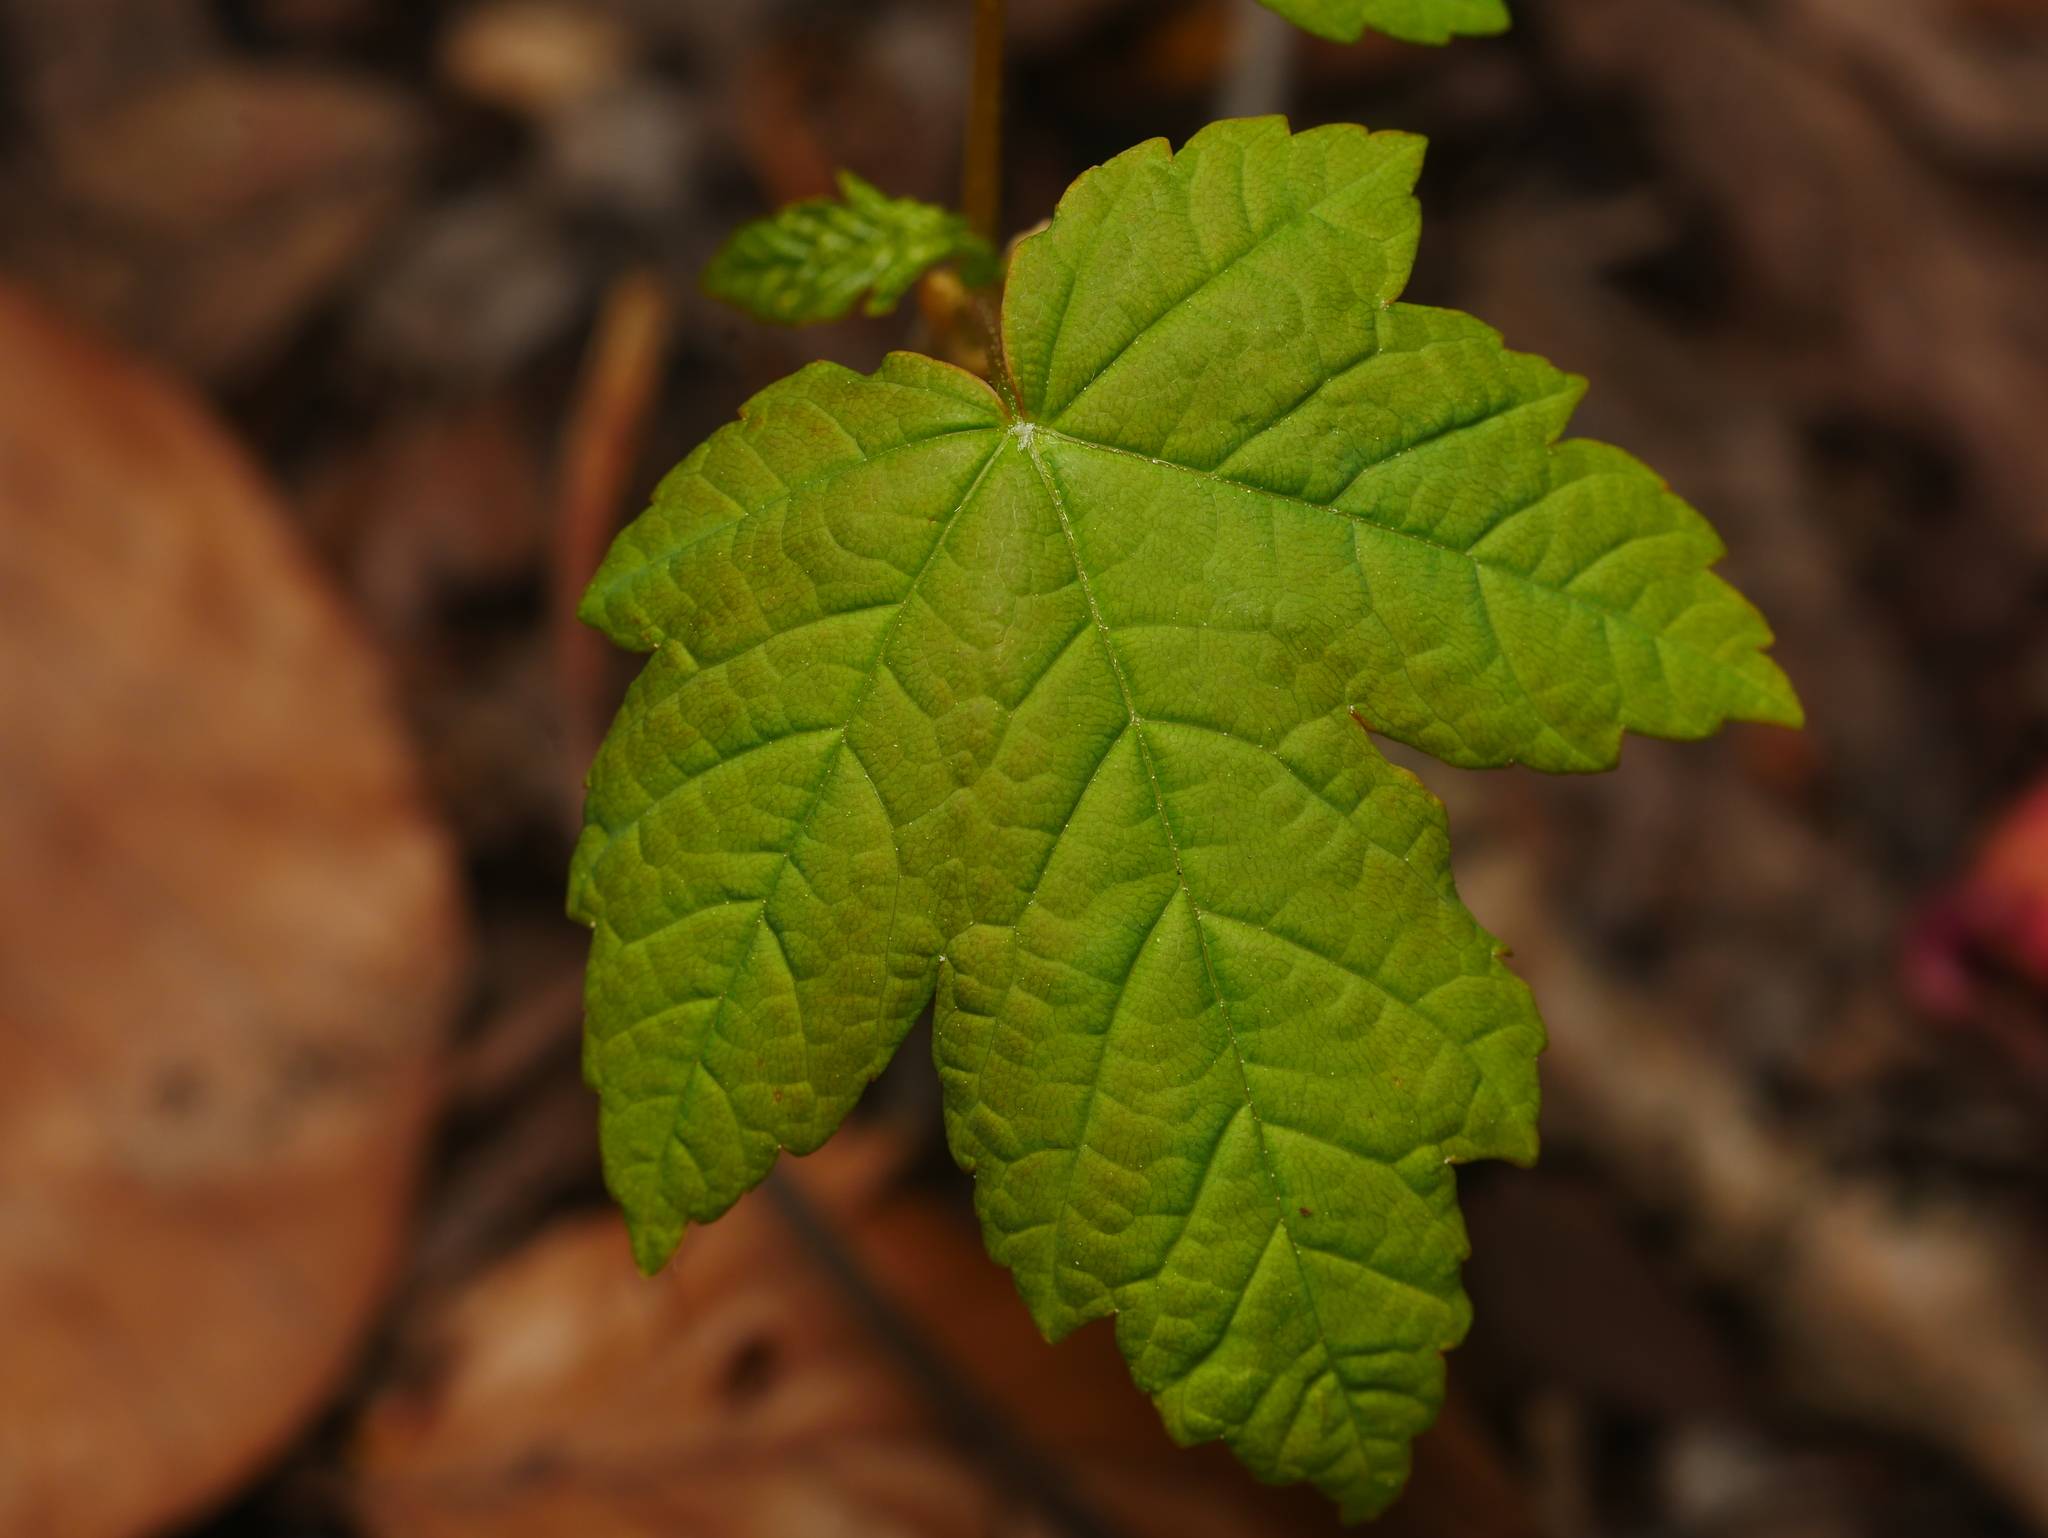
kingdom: Plantae
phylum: Tracheophyta
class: Magnoliopsida
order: Sapindales
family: Sapindaceae
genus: Acer
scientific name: Acer pseudoplatanus
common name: Sycamore
